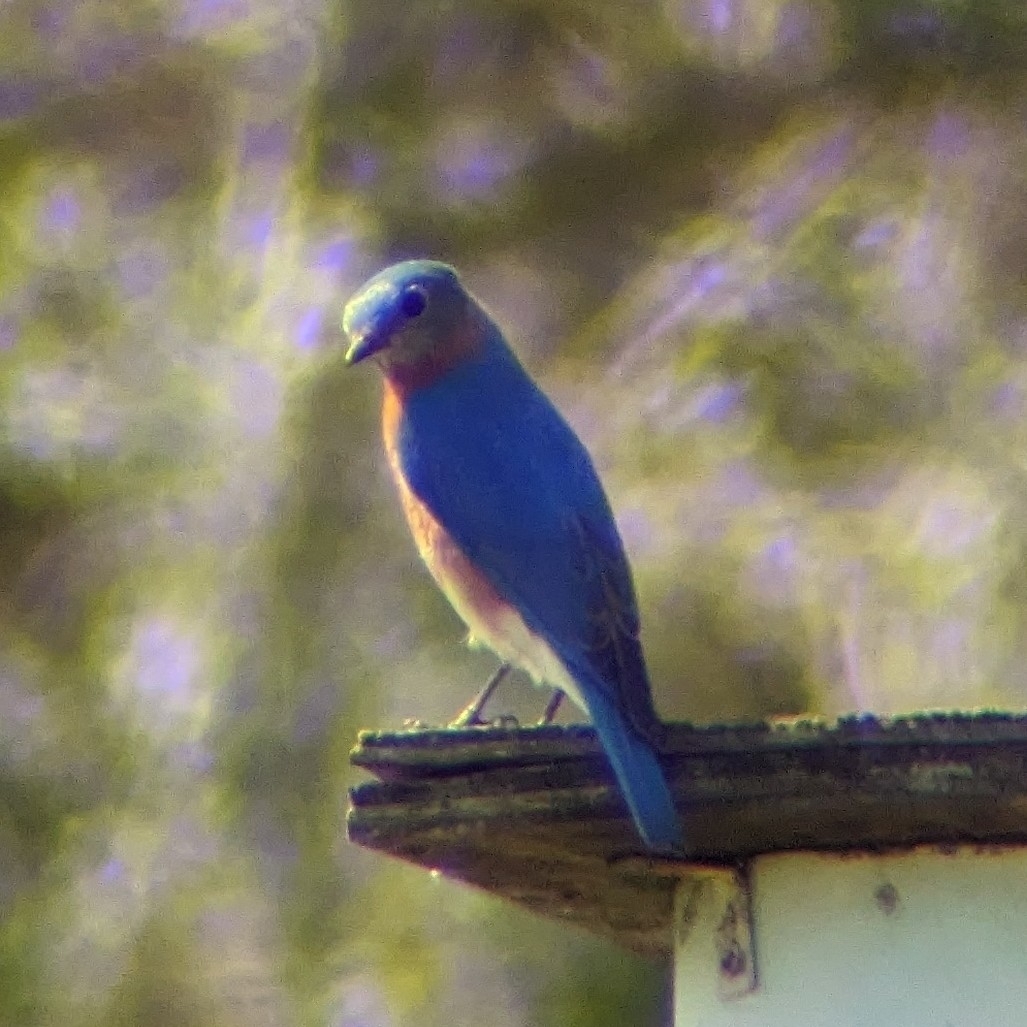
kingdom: Animalia
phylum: Chordata
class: Aves
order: Passeriformes
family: Turdidae
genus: Sialia
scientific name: Sialia sialis
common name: Eastern bluebird
